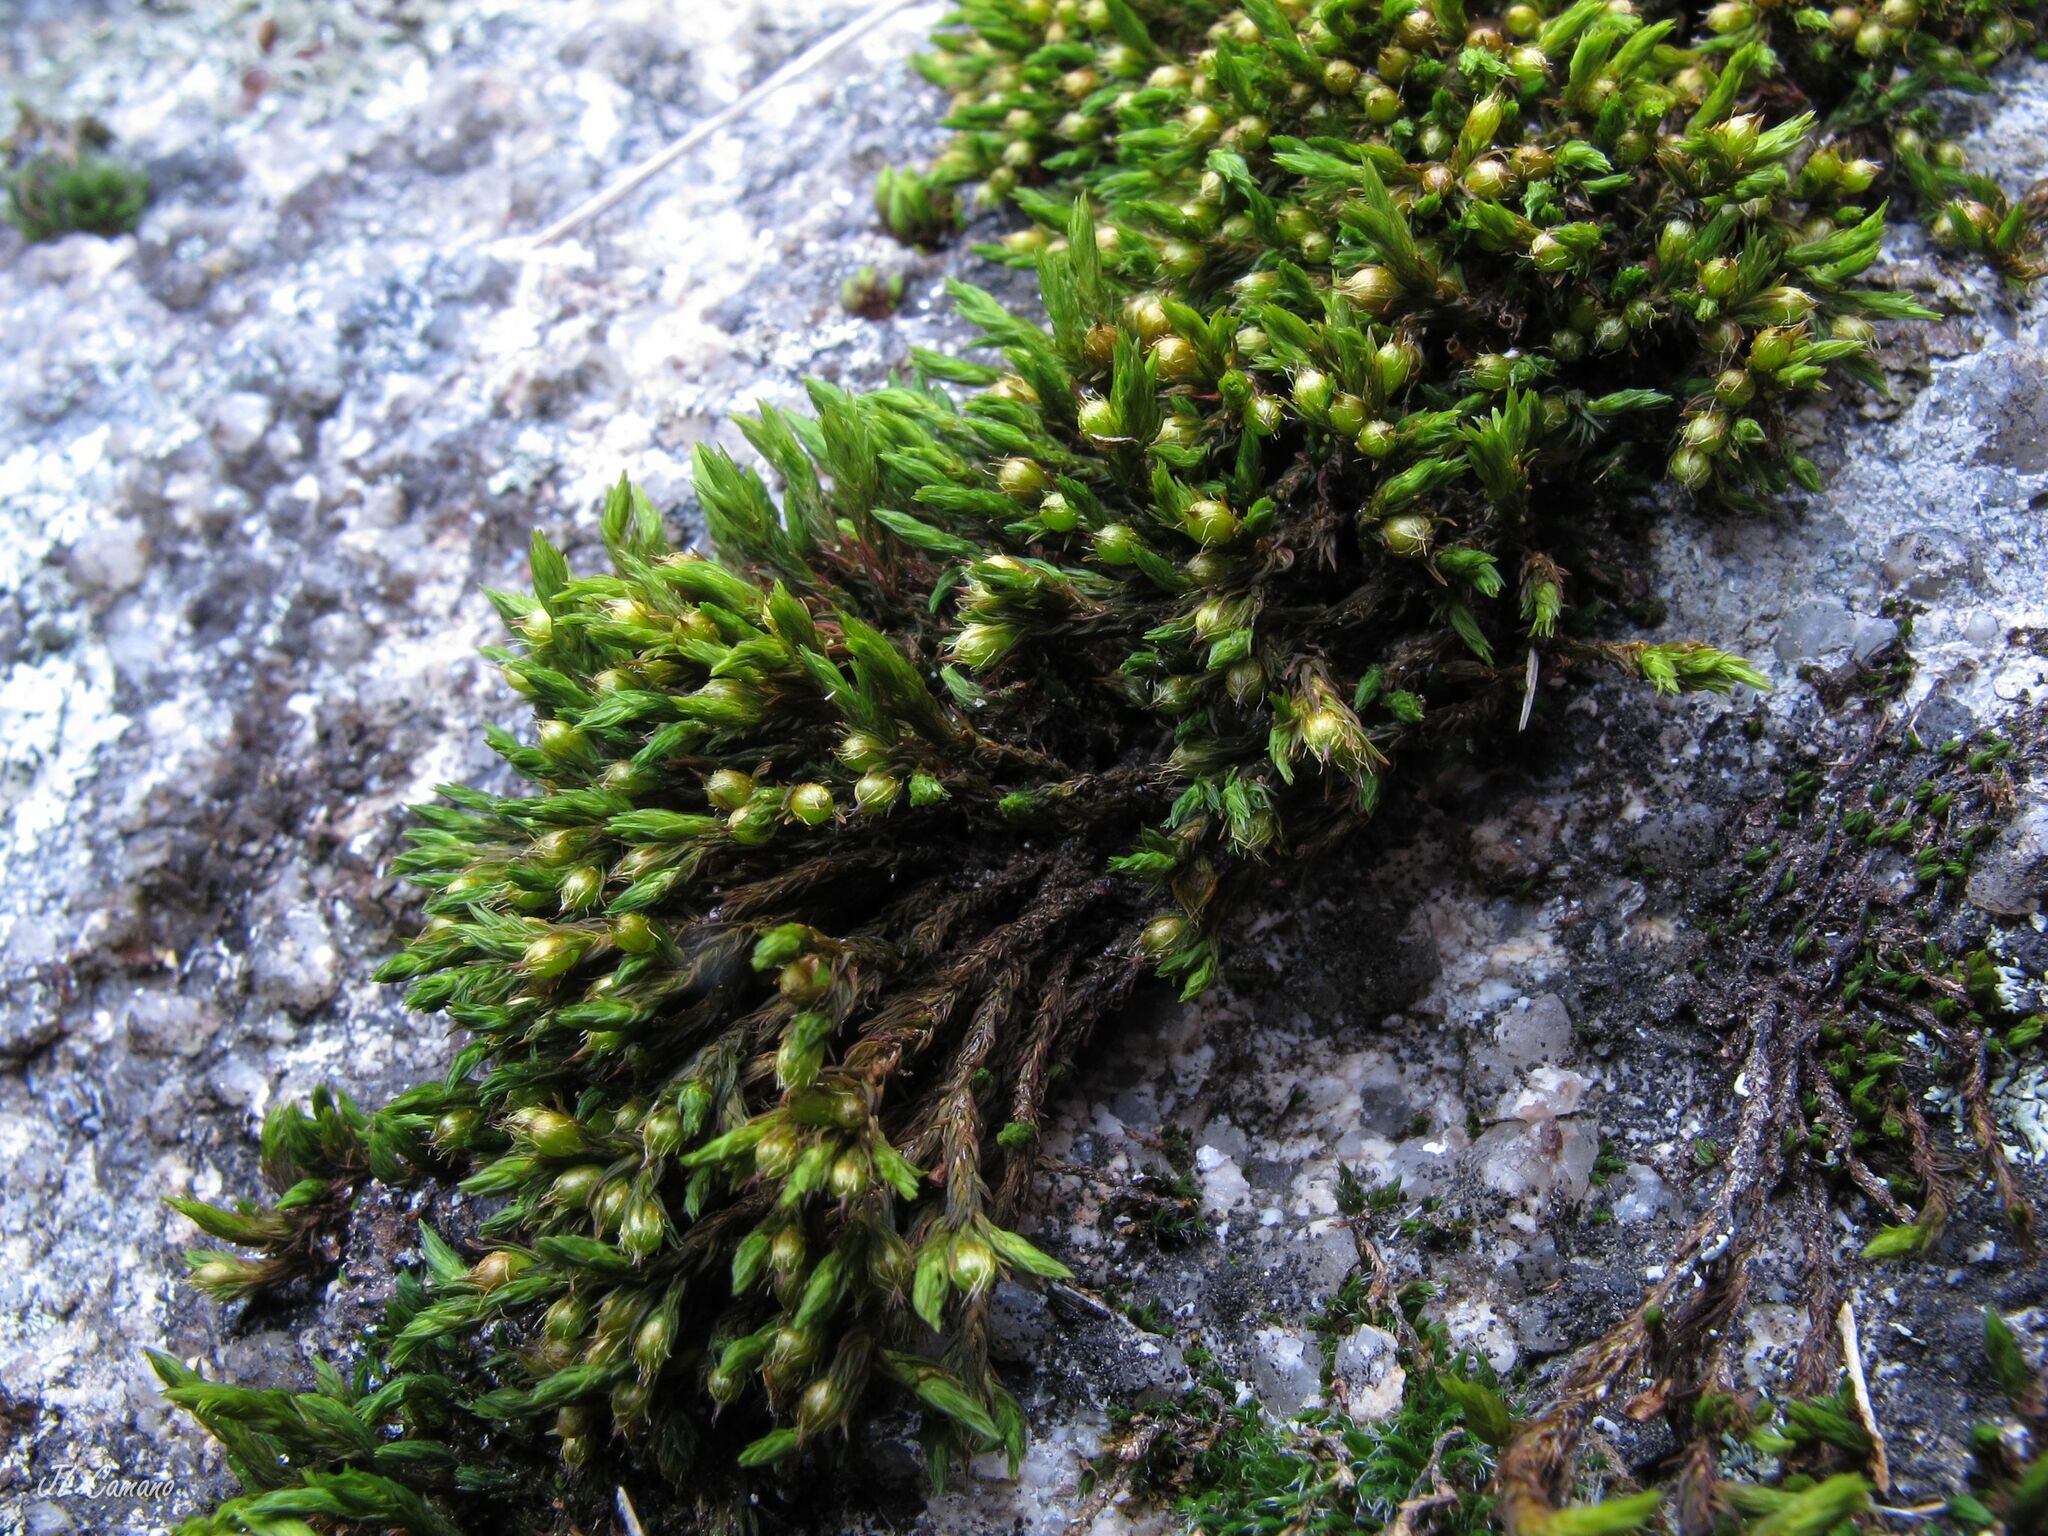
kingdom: Plantae
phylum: Bryophyta
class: Bryopsida
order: Orthotrichales
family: Orthotrichaceae
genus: Lewinskya
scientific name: Lewinskya rupestris
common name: Rock bristle-moss
